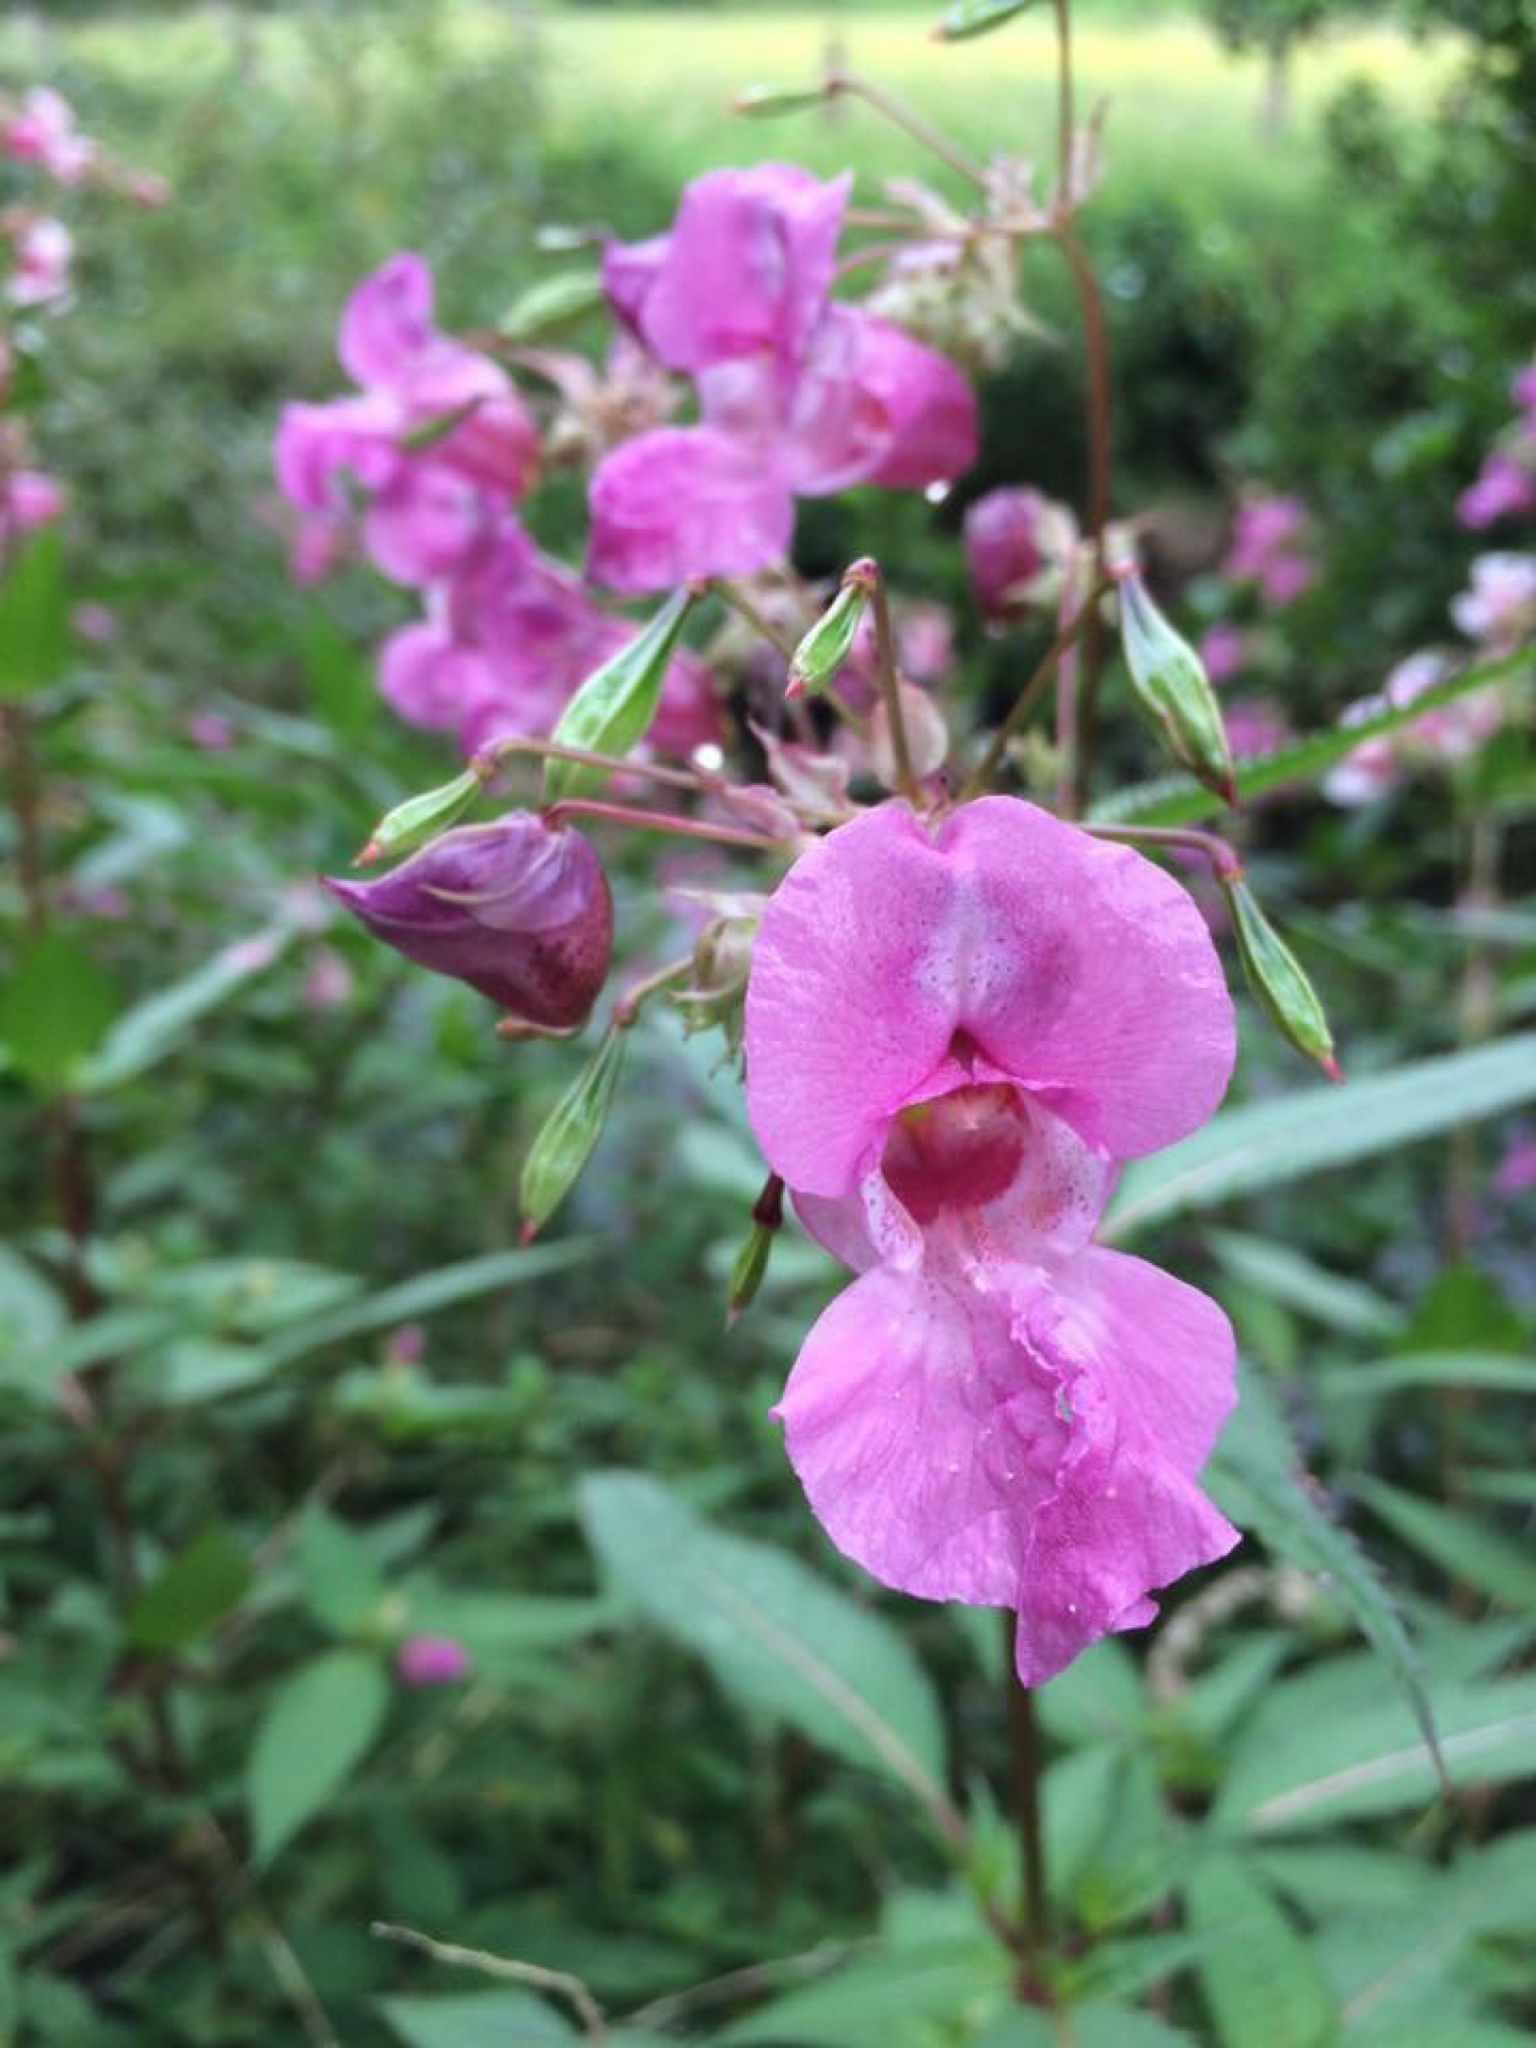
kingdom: Plantae
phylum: Tracheophyta
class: Magnoliopsida
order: Ericales
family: Balsaminaceae
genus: Impatiens
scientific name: Impatiens glandulifera
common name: Himalayan balsam
